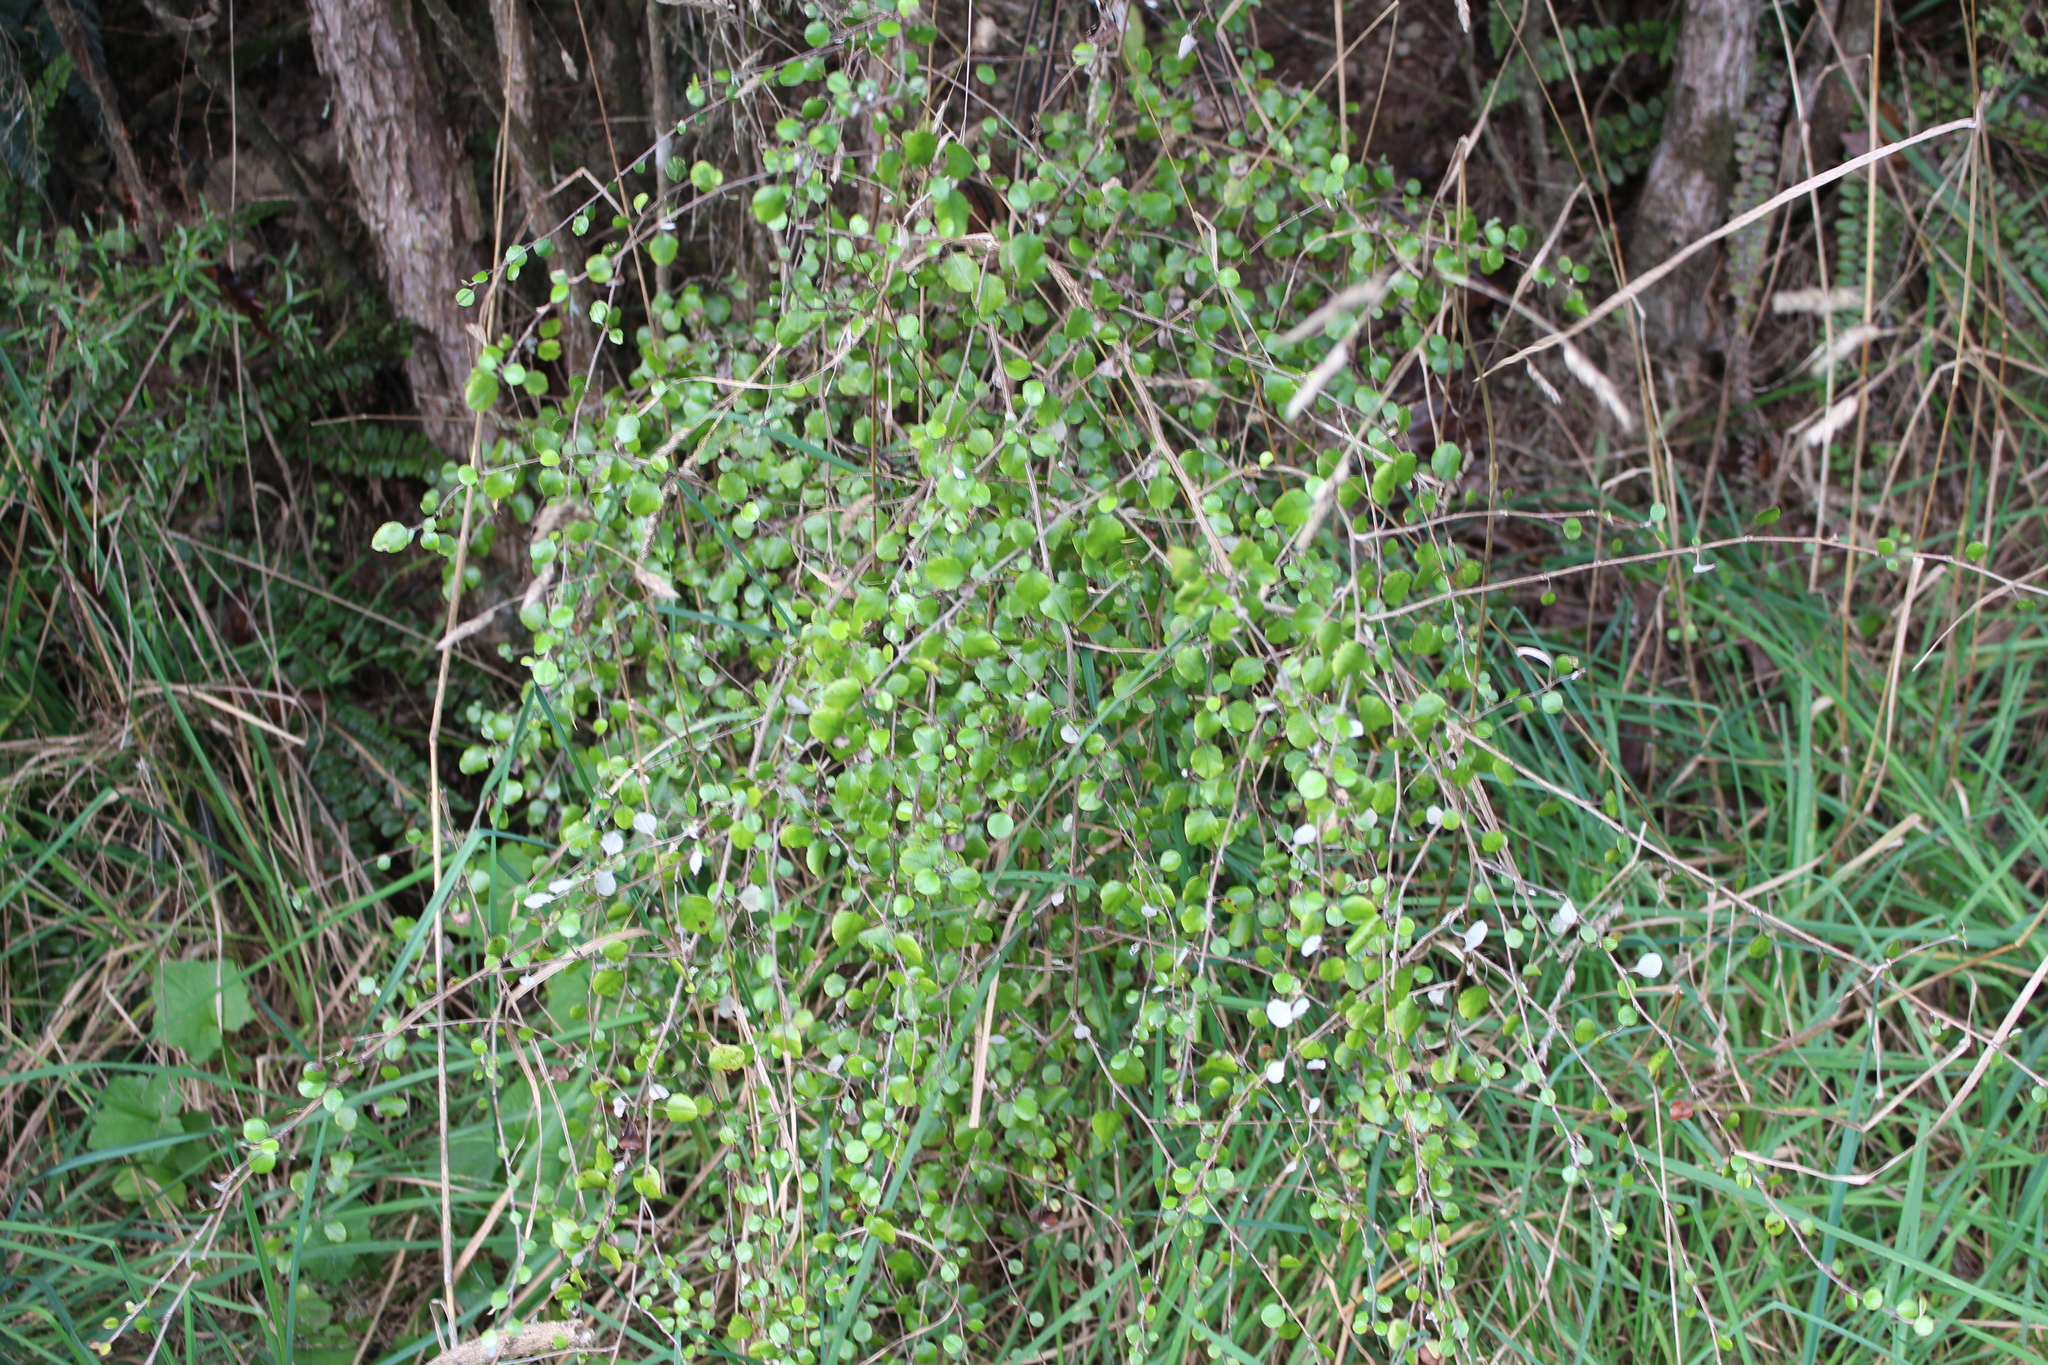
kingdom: Plantae
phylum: Tracheophyta
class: Magnoliopsida
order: Asterales
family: Asteraceae
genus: Ozothamnus
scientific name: Ozothamnus glomeratus
